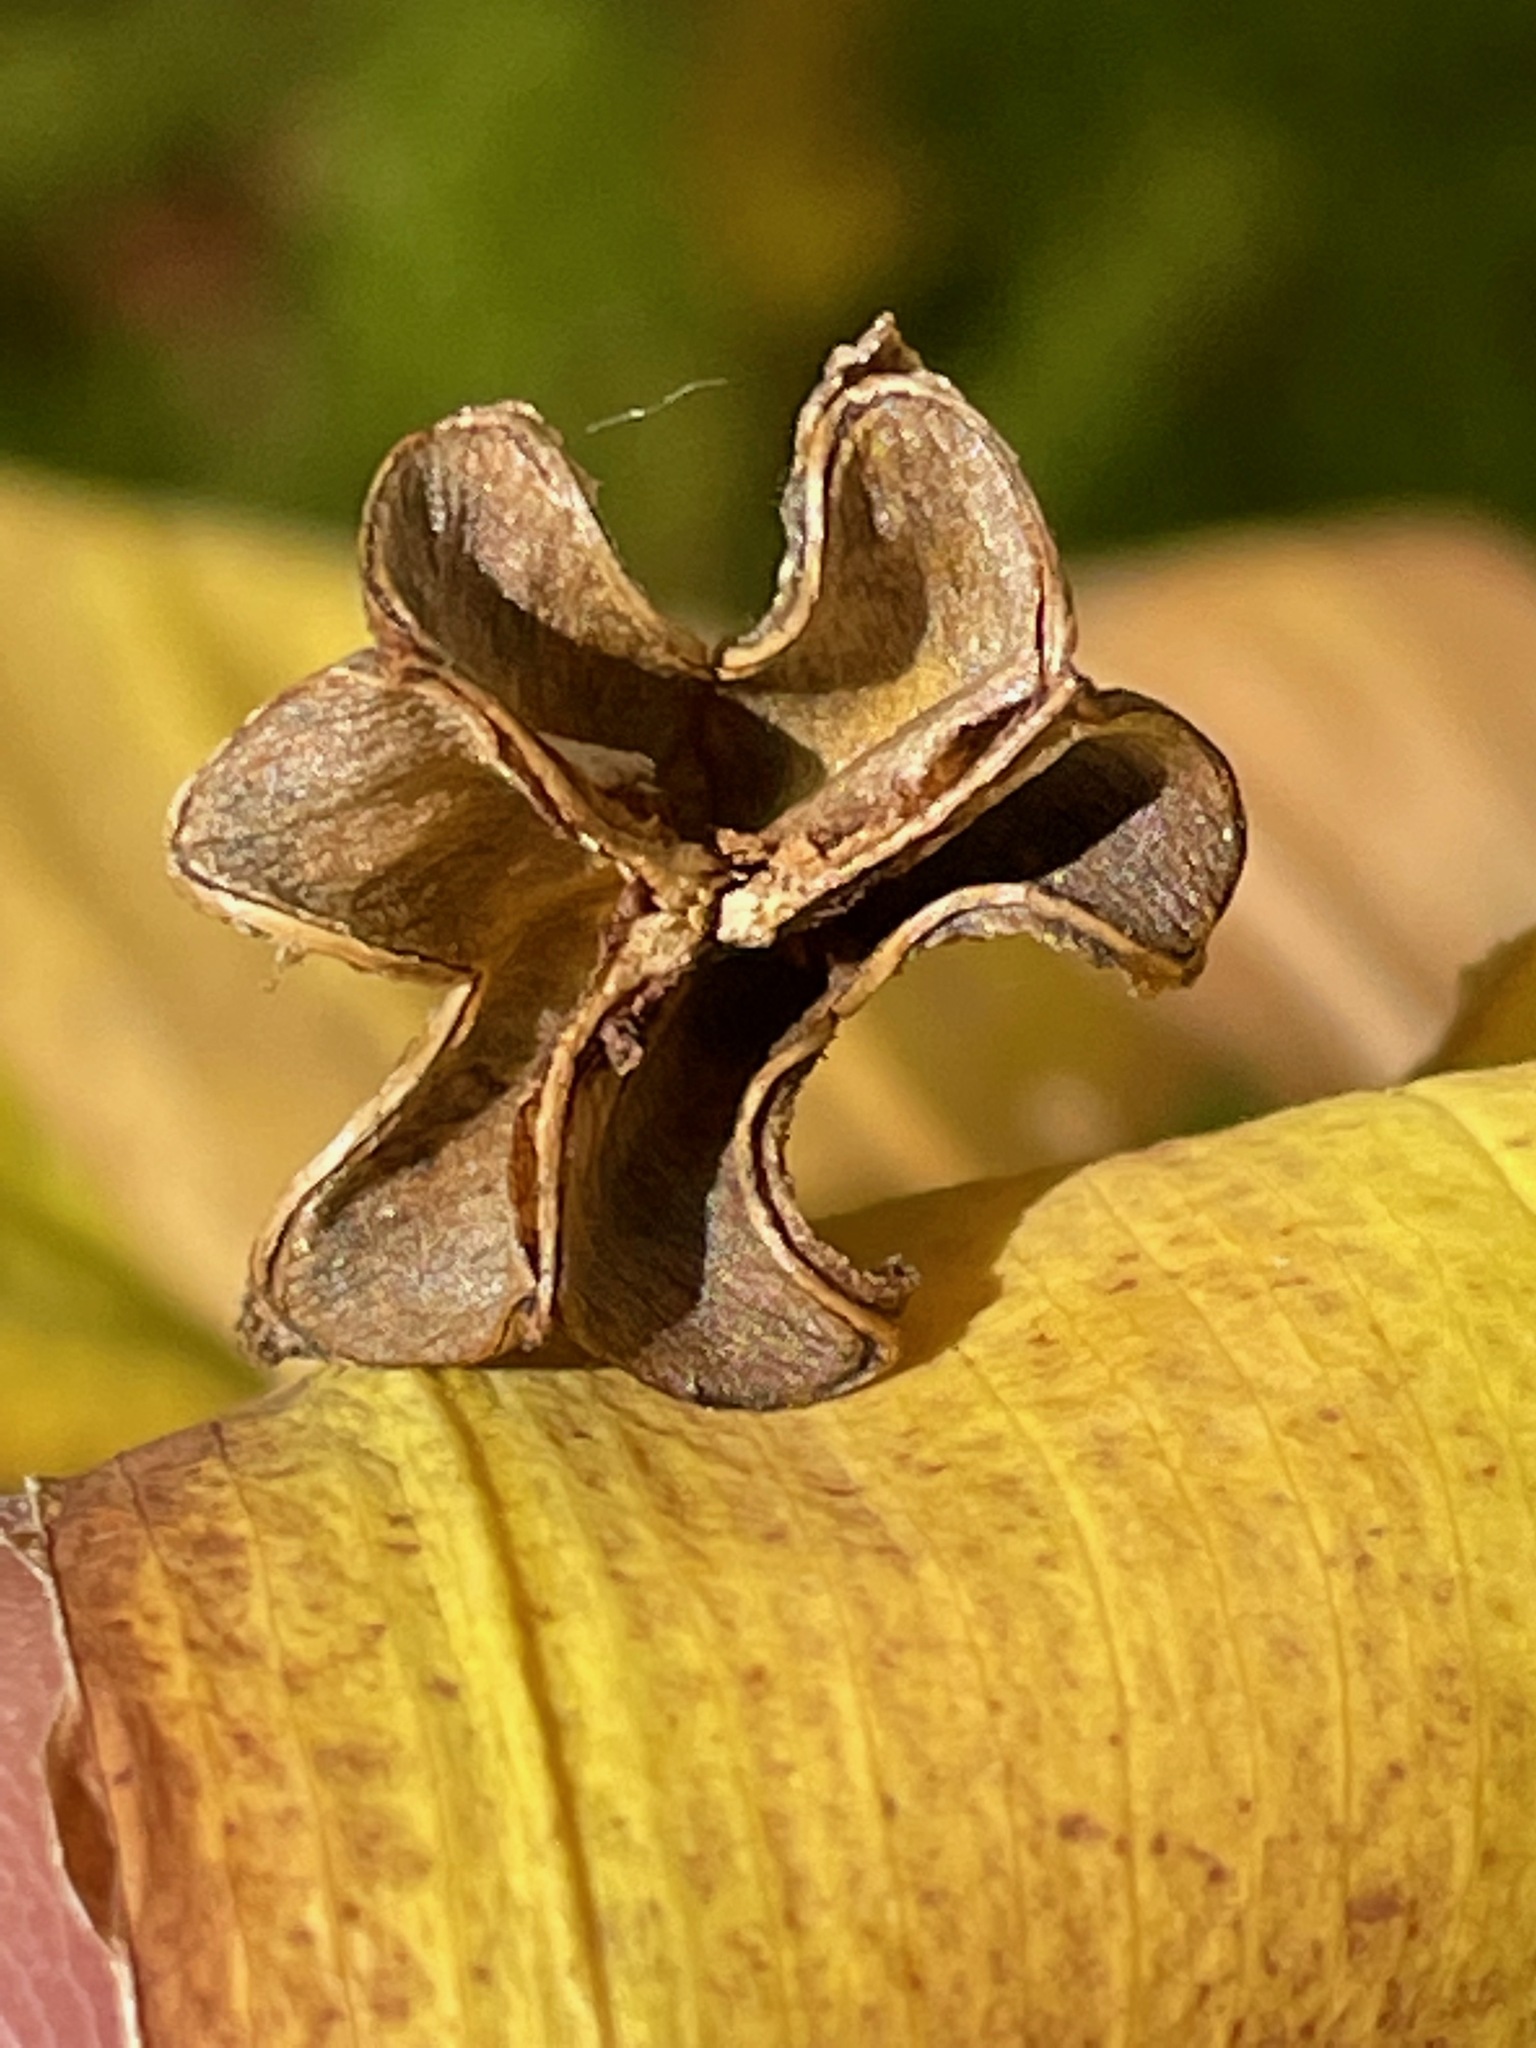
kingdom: Plantae
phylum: Tracheophyta
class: Liliopsida
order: Liliales
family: Colchicaceae
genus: Uvularia
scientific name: Uvularia grandiflora
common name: Bellwort
